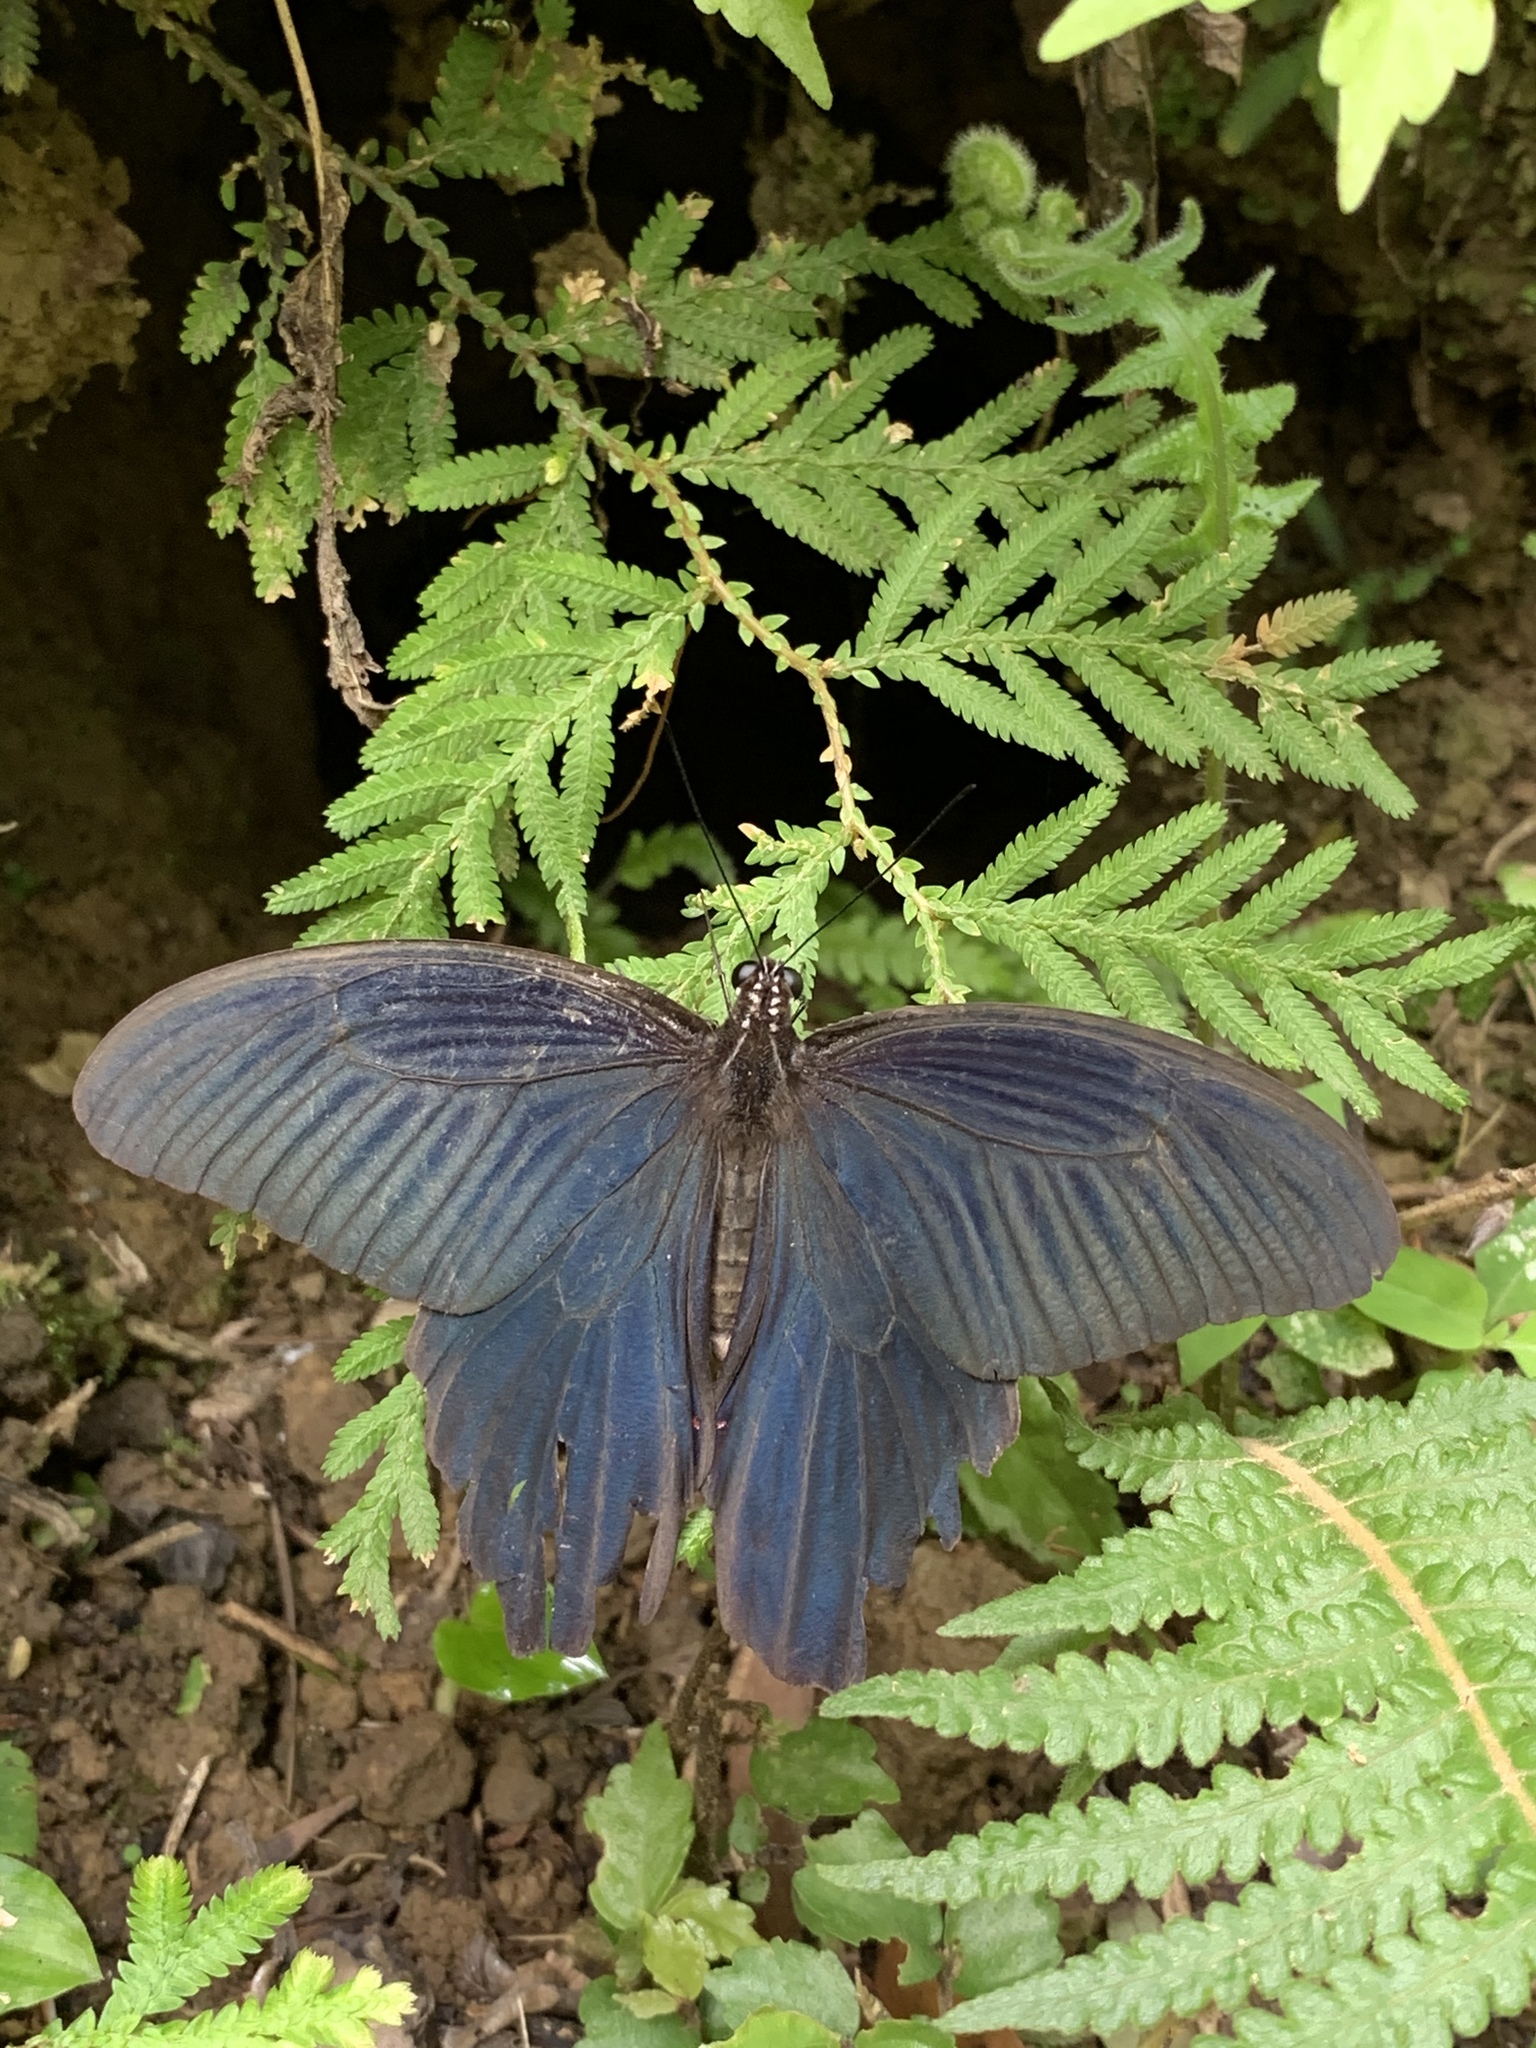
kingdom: Animalia
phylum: Arthropoda
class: Insecta
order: Lepidoptera
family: Papilionidae
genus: Papilio
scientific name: Papilio protenor
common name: Spangle
